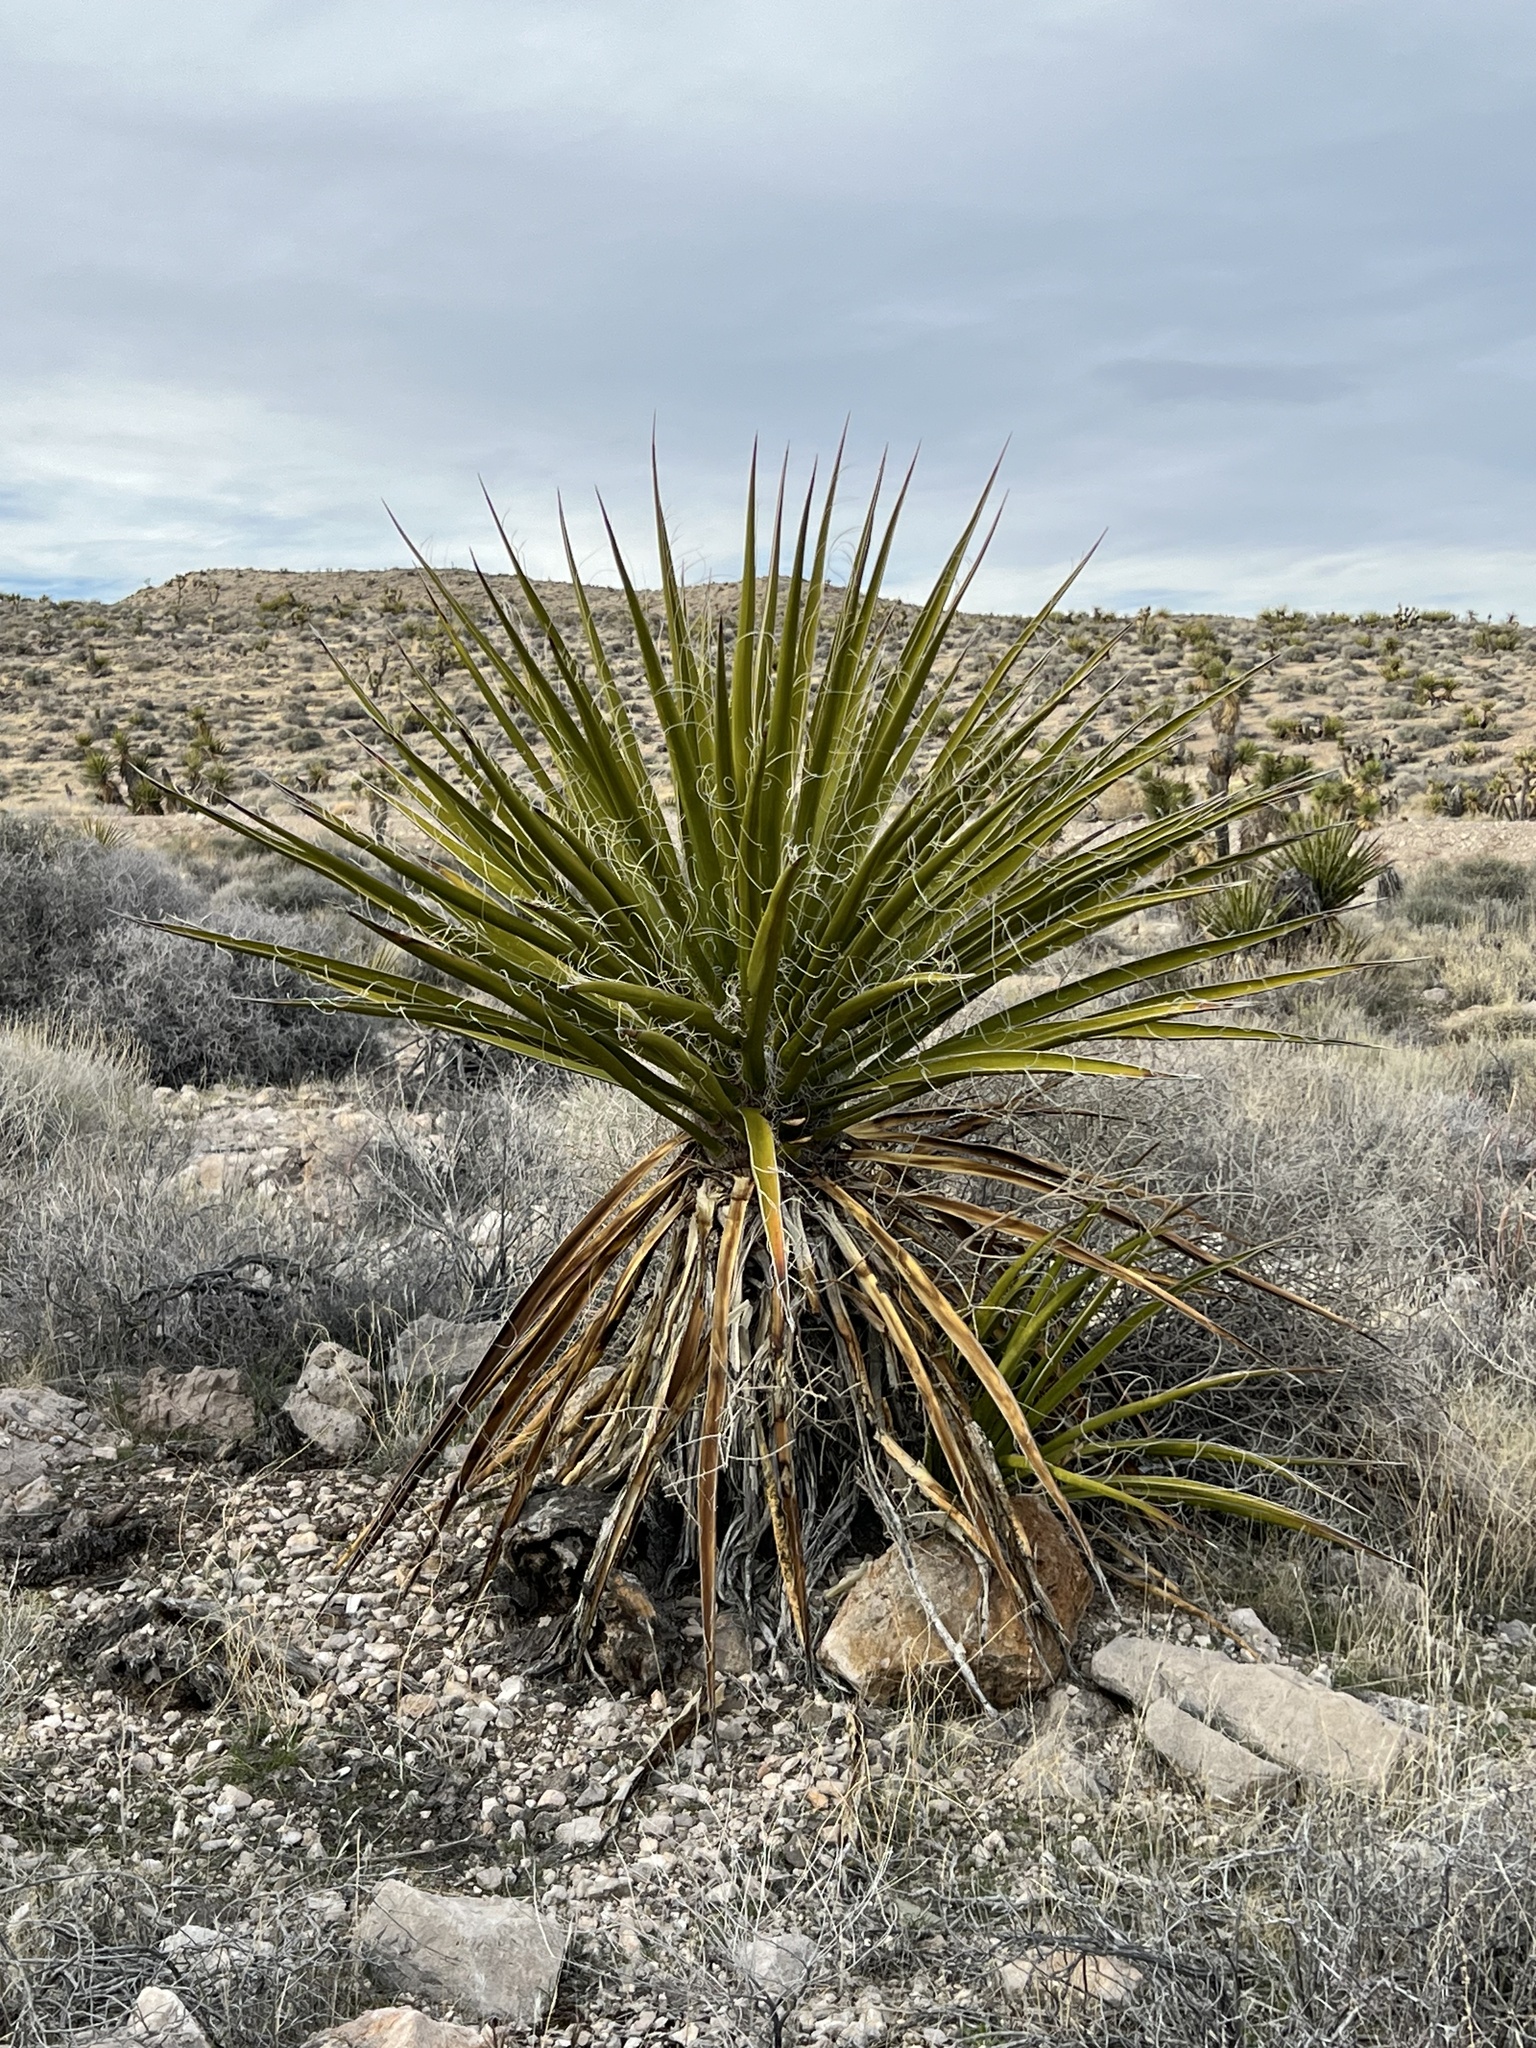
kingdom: Plantae
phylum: Tracheophyta
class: Liliopsida
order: Asparagales
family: Asparagaceae
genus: Yucca
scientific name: Yucca schidigera
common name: Mojave yucca
